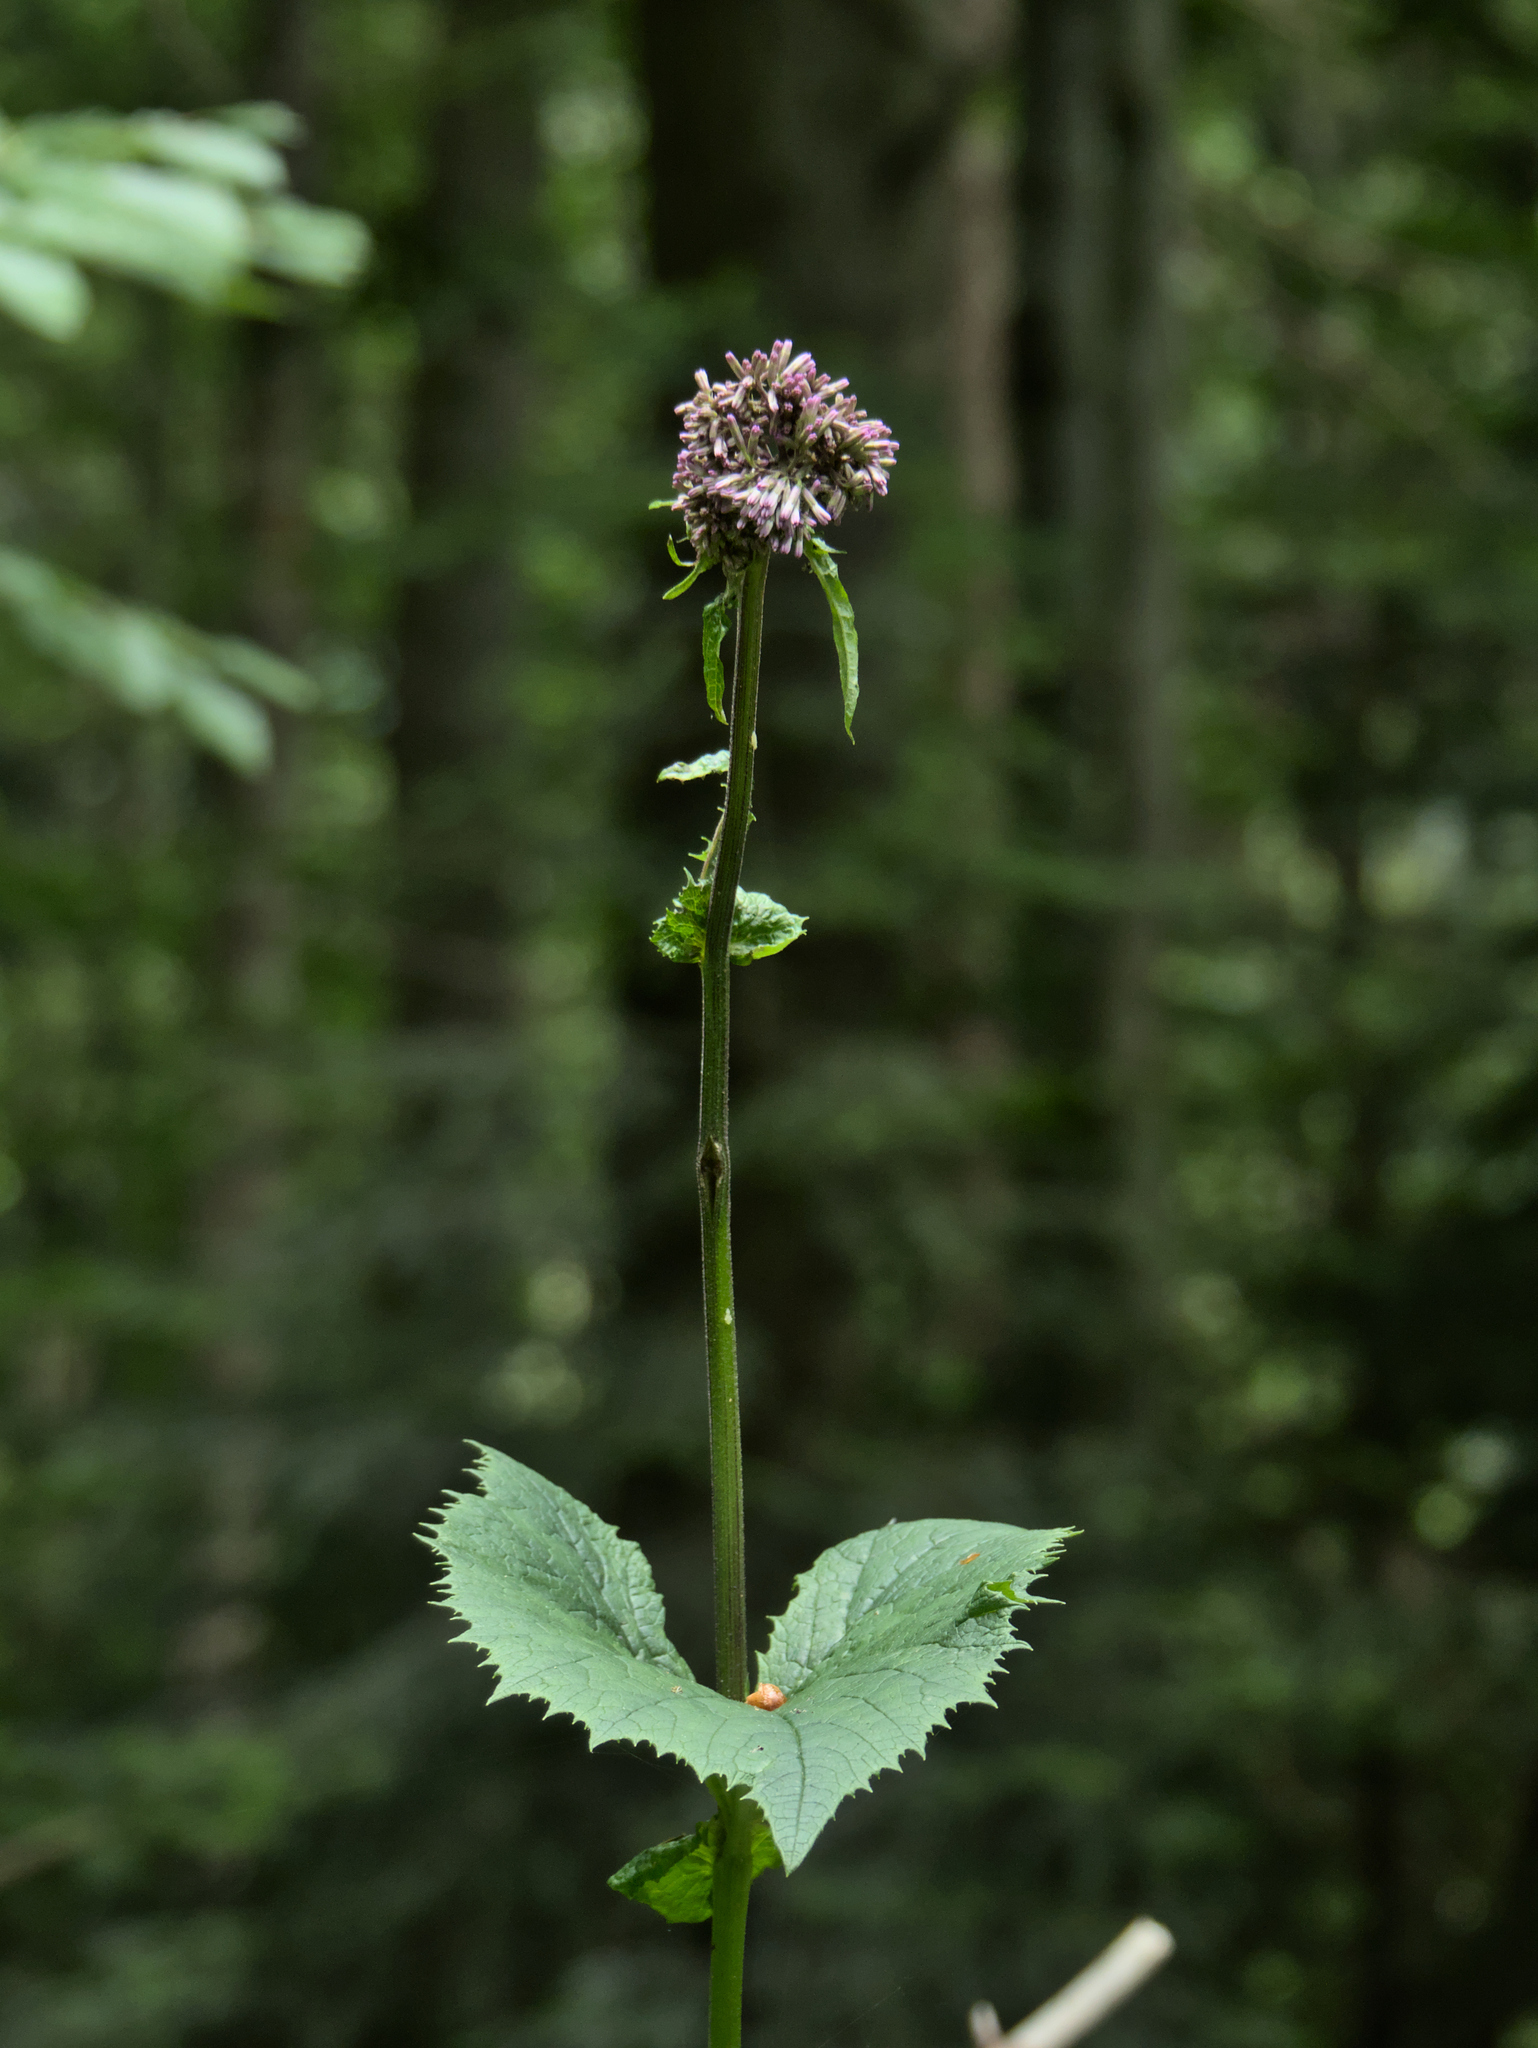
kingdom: Plantae
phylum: Tracheophyta
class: Magnoliopsida
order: Asterales
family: Asteraceae
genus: Adenostyles
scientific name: Adenostyles alliariae
